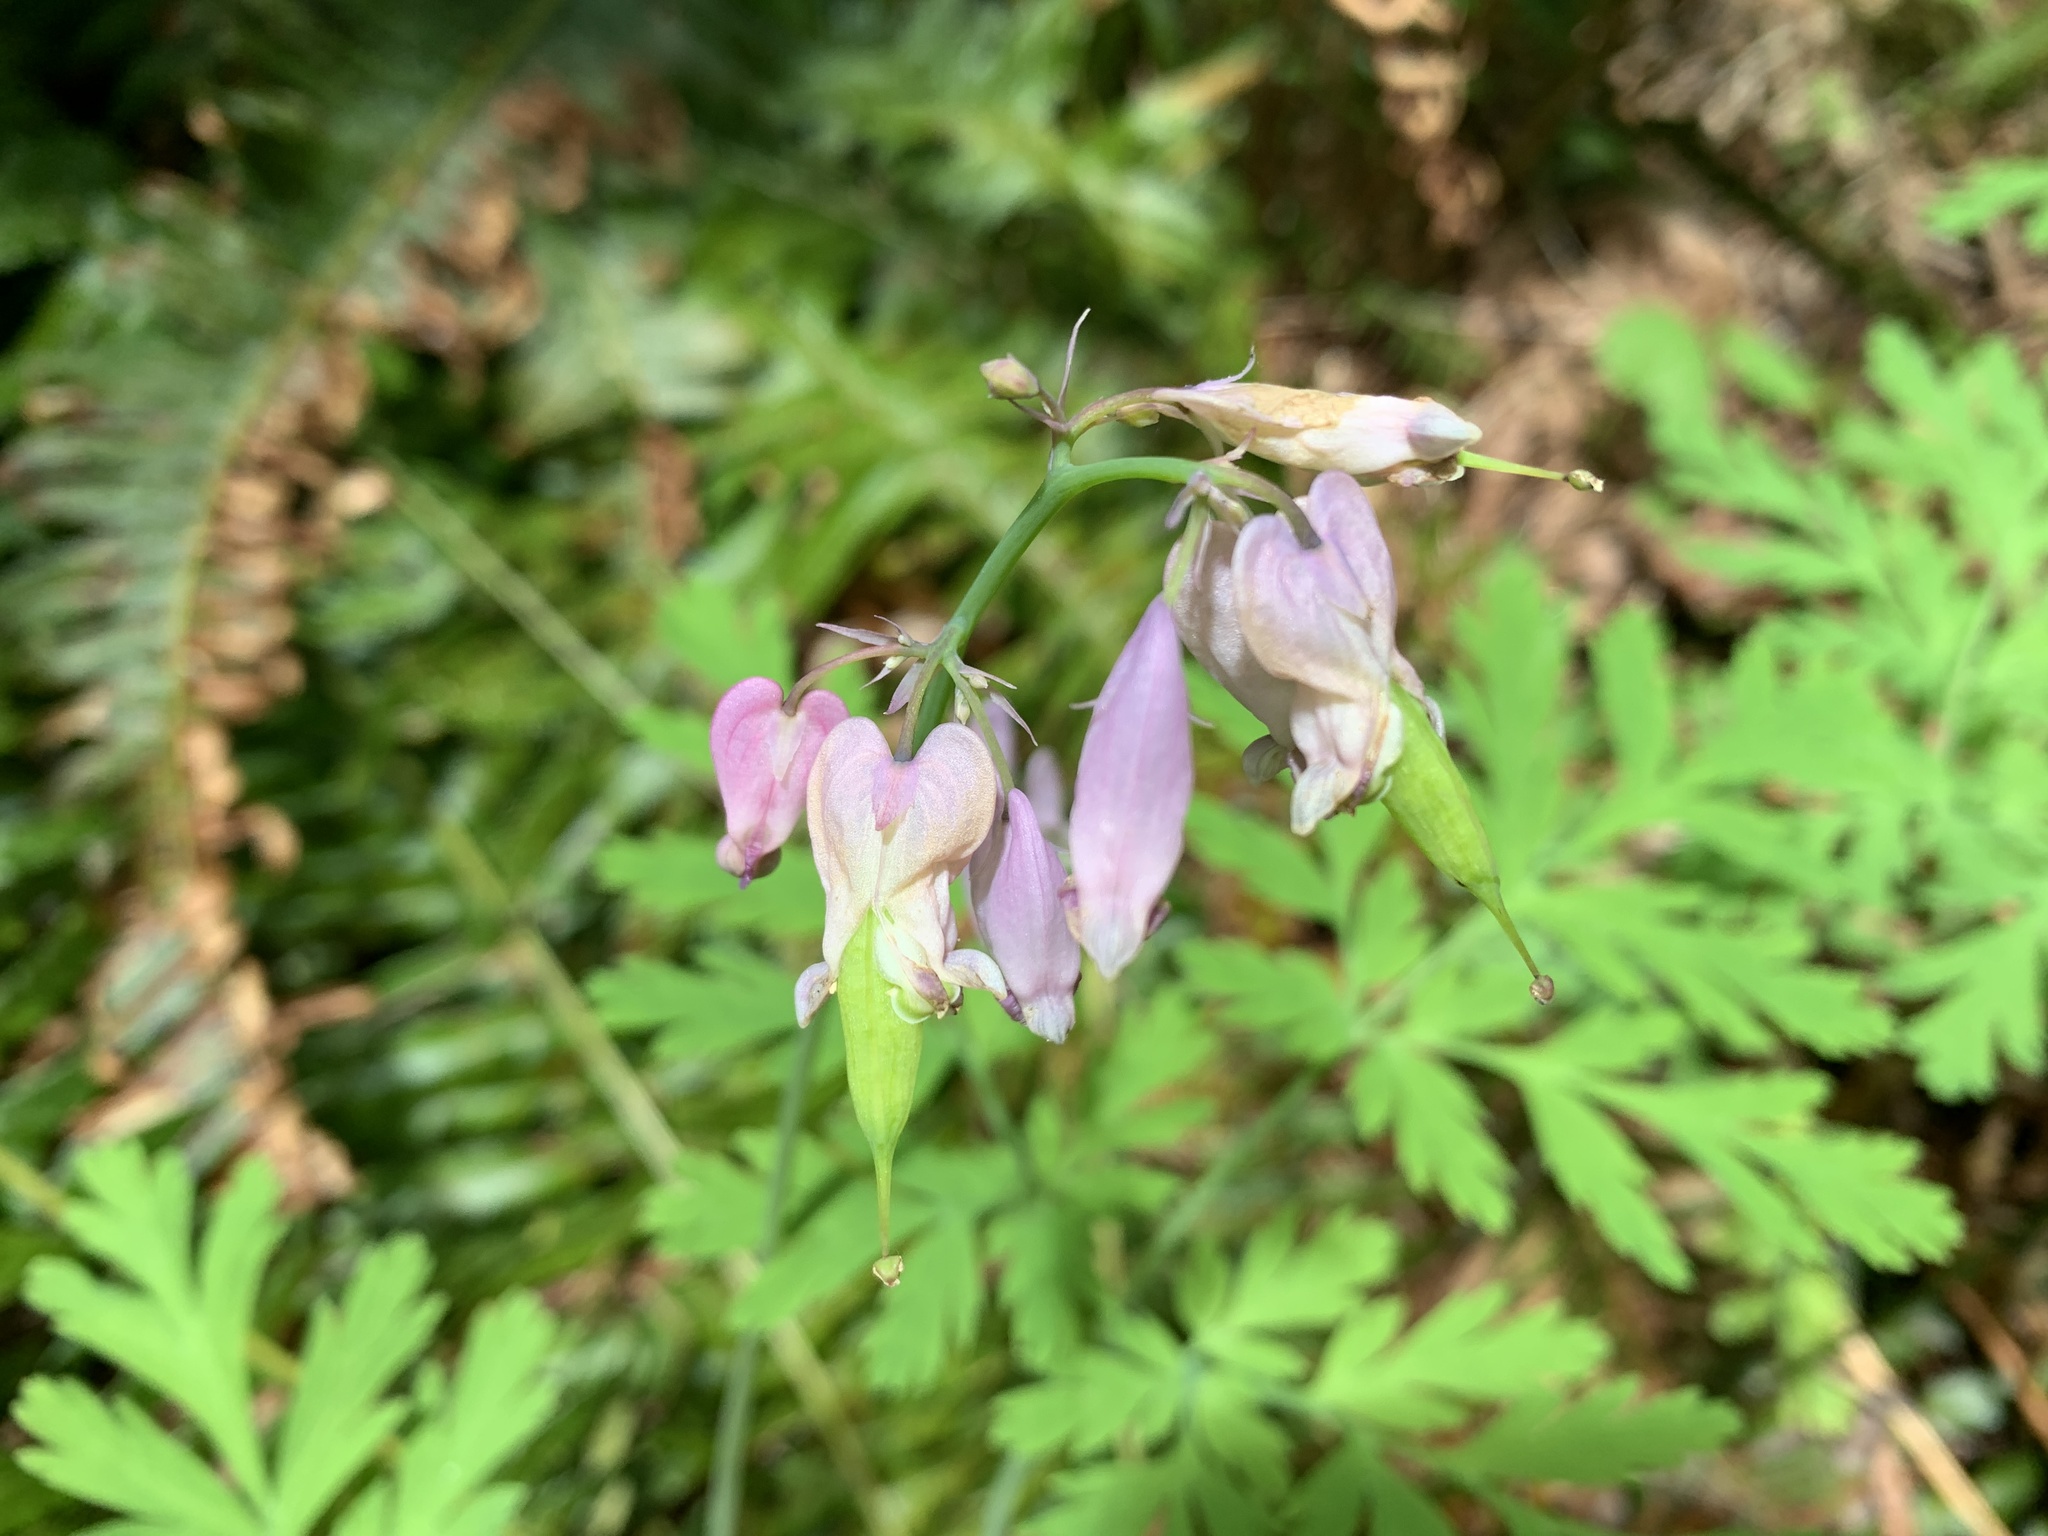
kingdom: Plantae
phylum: Tracheophyta
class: Magnoliopsida
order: Ranunculales
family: Papaveraceae
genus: Dicentra
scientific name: Dicentra formosa
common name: Bleeding-heart
